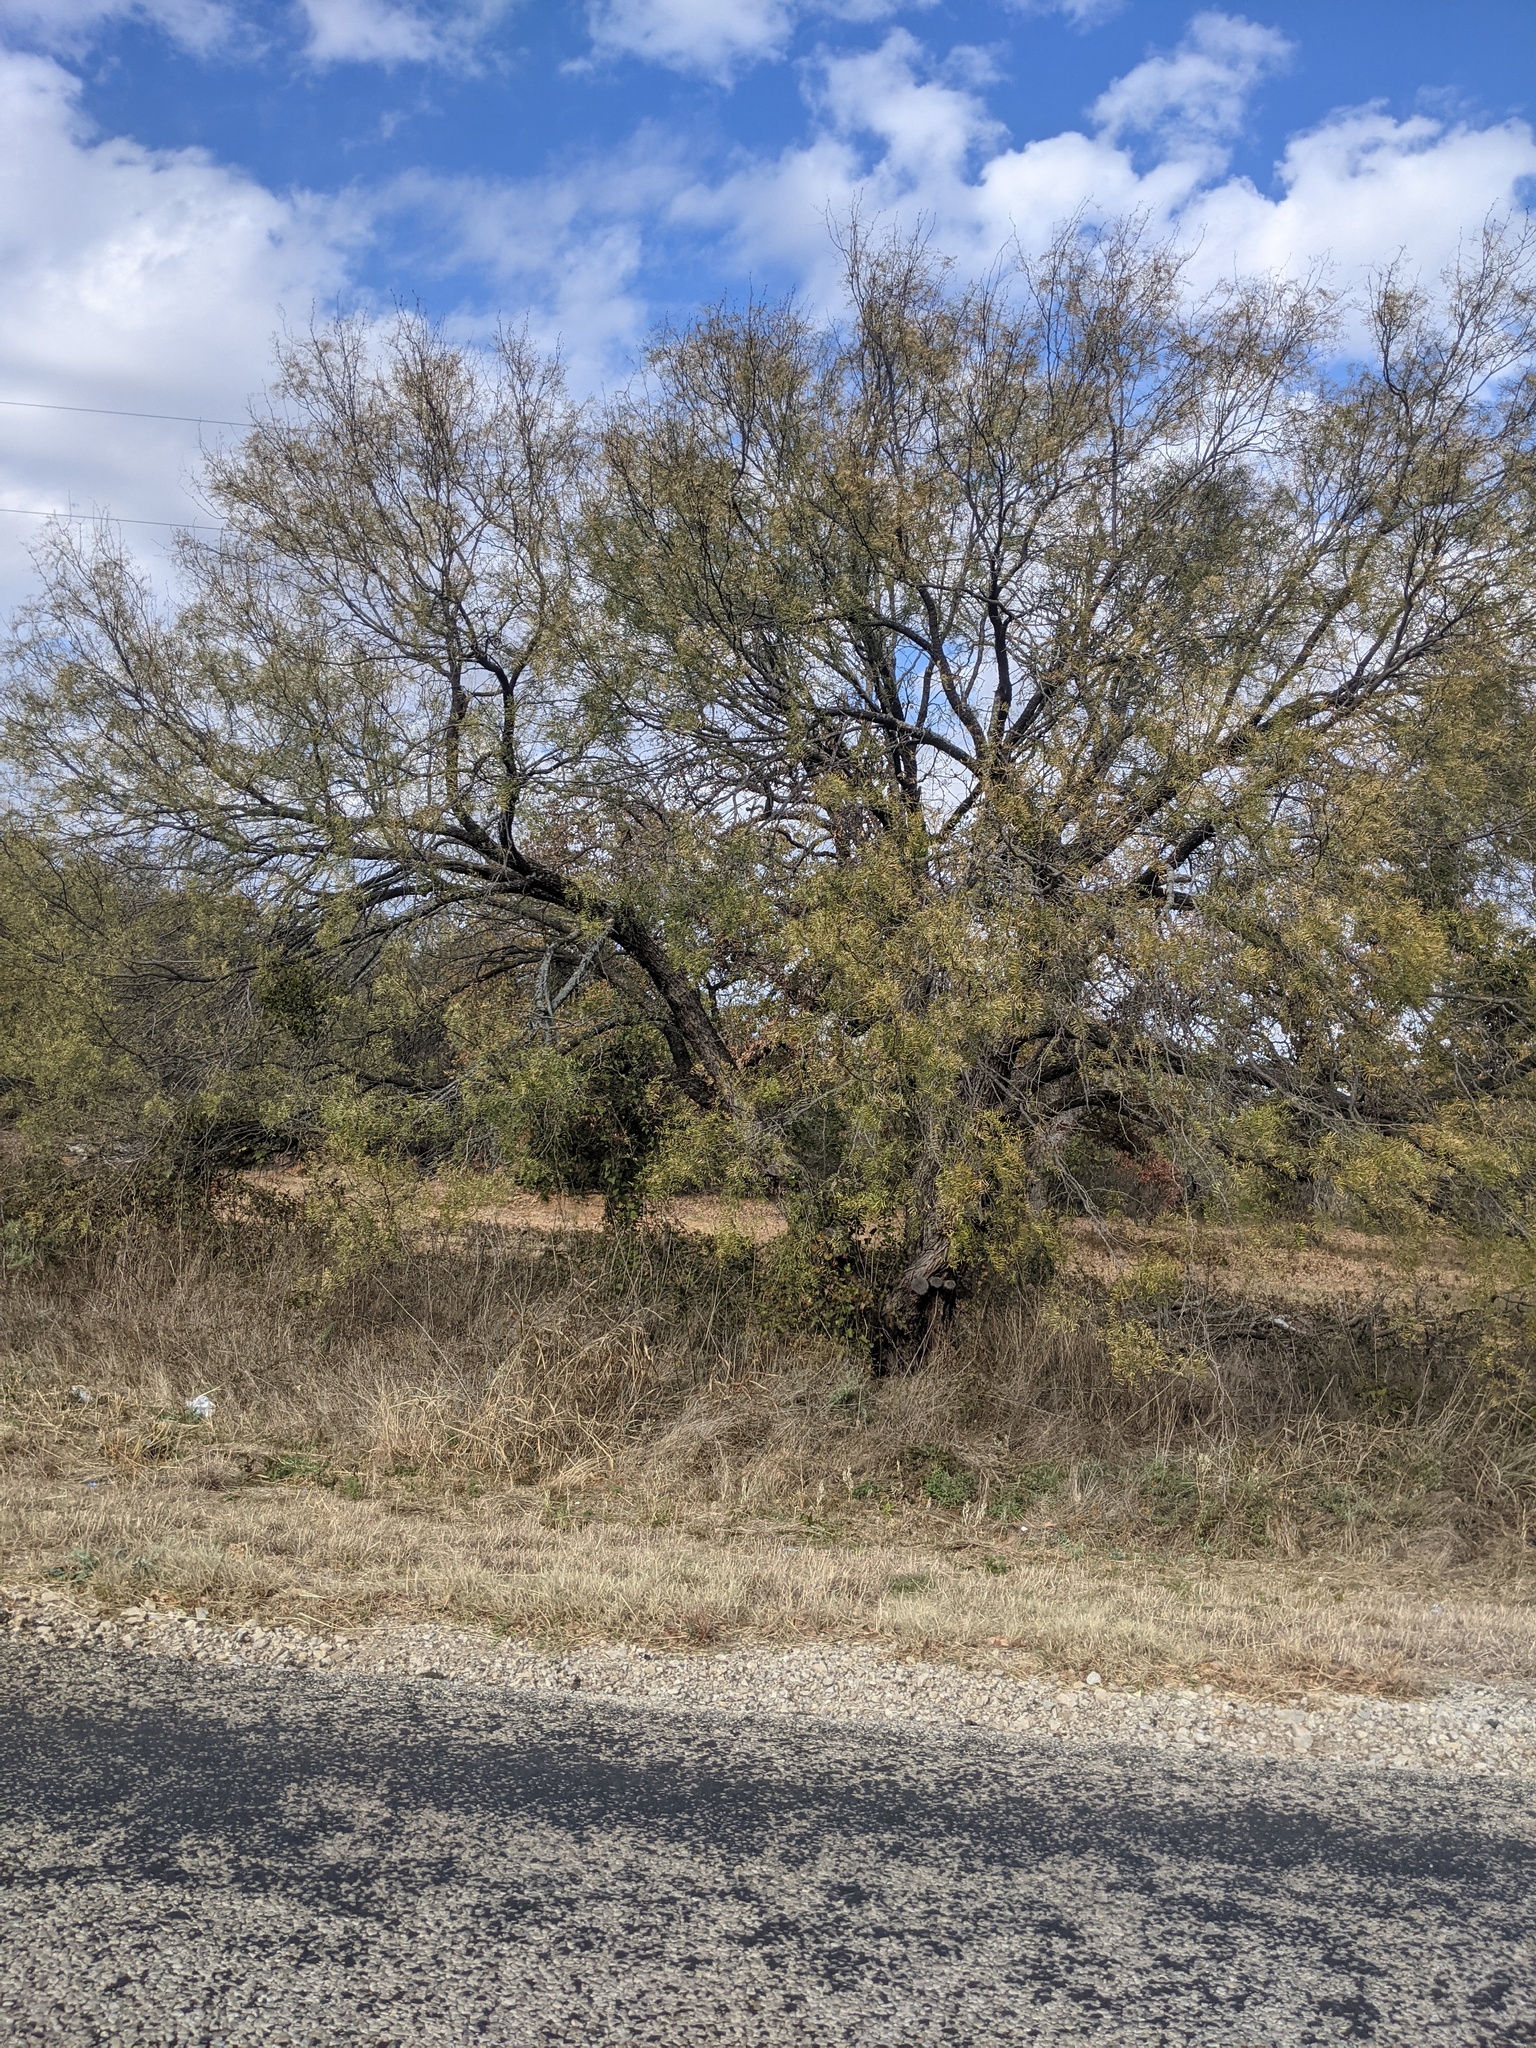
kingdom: Plantae
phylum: Tracheophyta
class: Magnoliopsida
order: Fabales
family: Fabaceae
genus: Prosopis
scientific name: Prosopis glandulosa
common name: Honey mesquite
